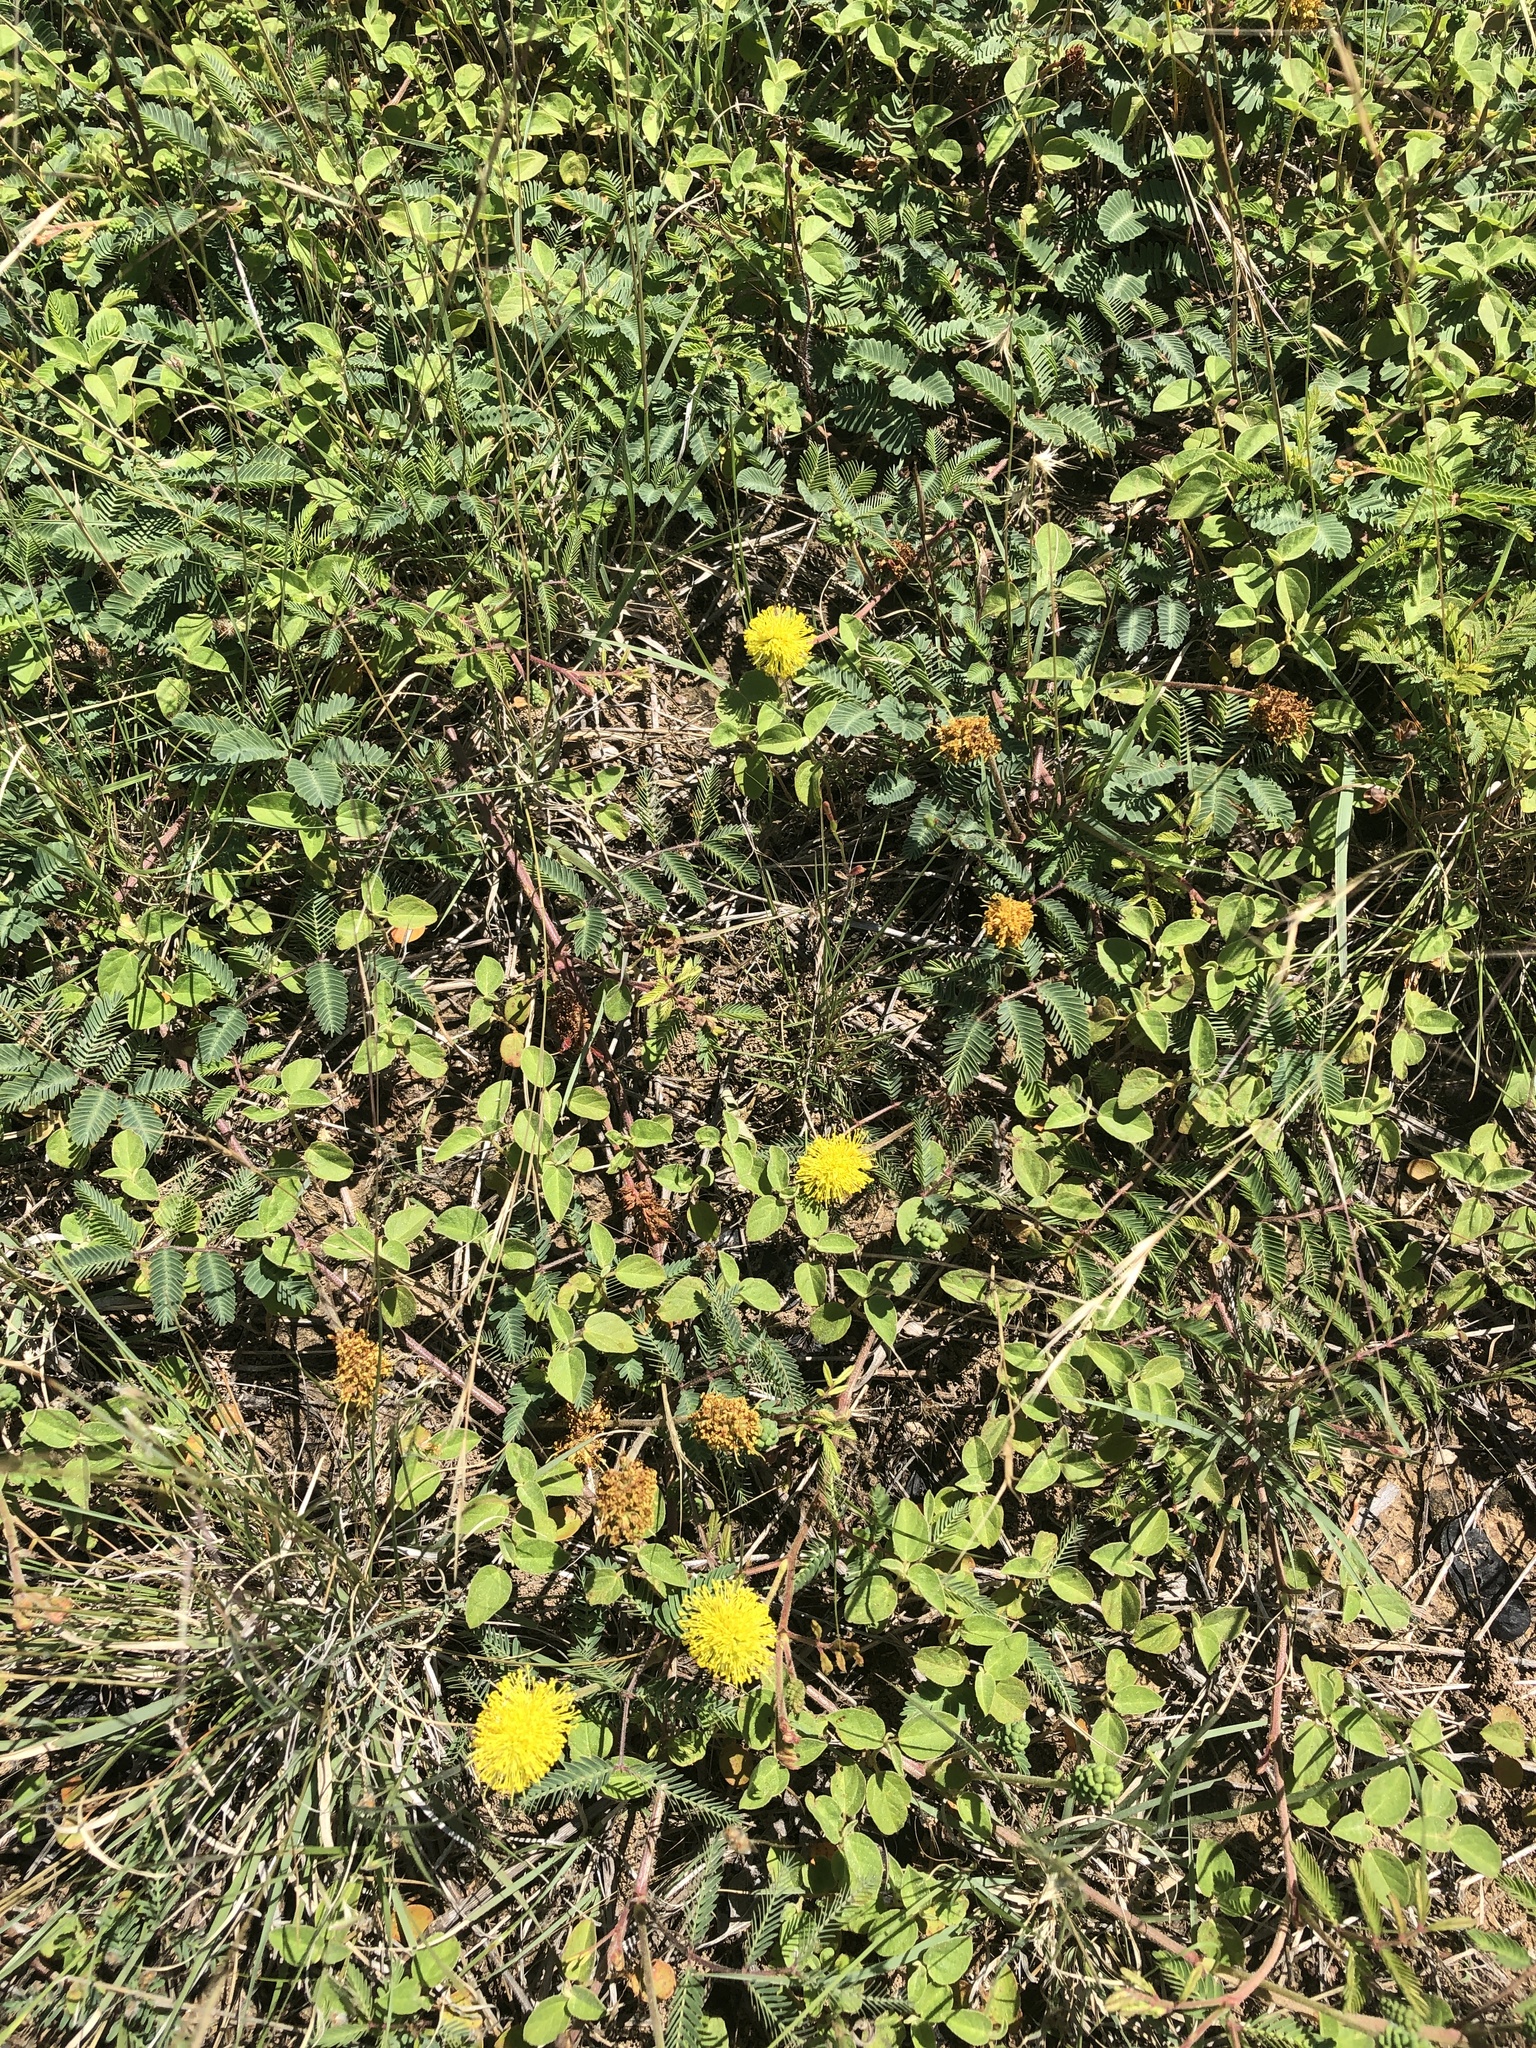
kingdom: Plantae
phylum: Tracheophyta
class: Magnoliopsida
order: Fabales
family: Fabaceae
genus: Neptunia
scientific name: Neptunia lutea
